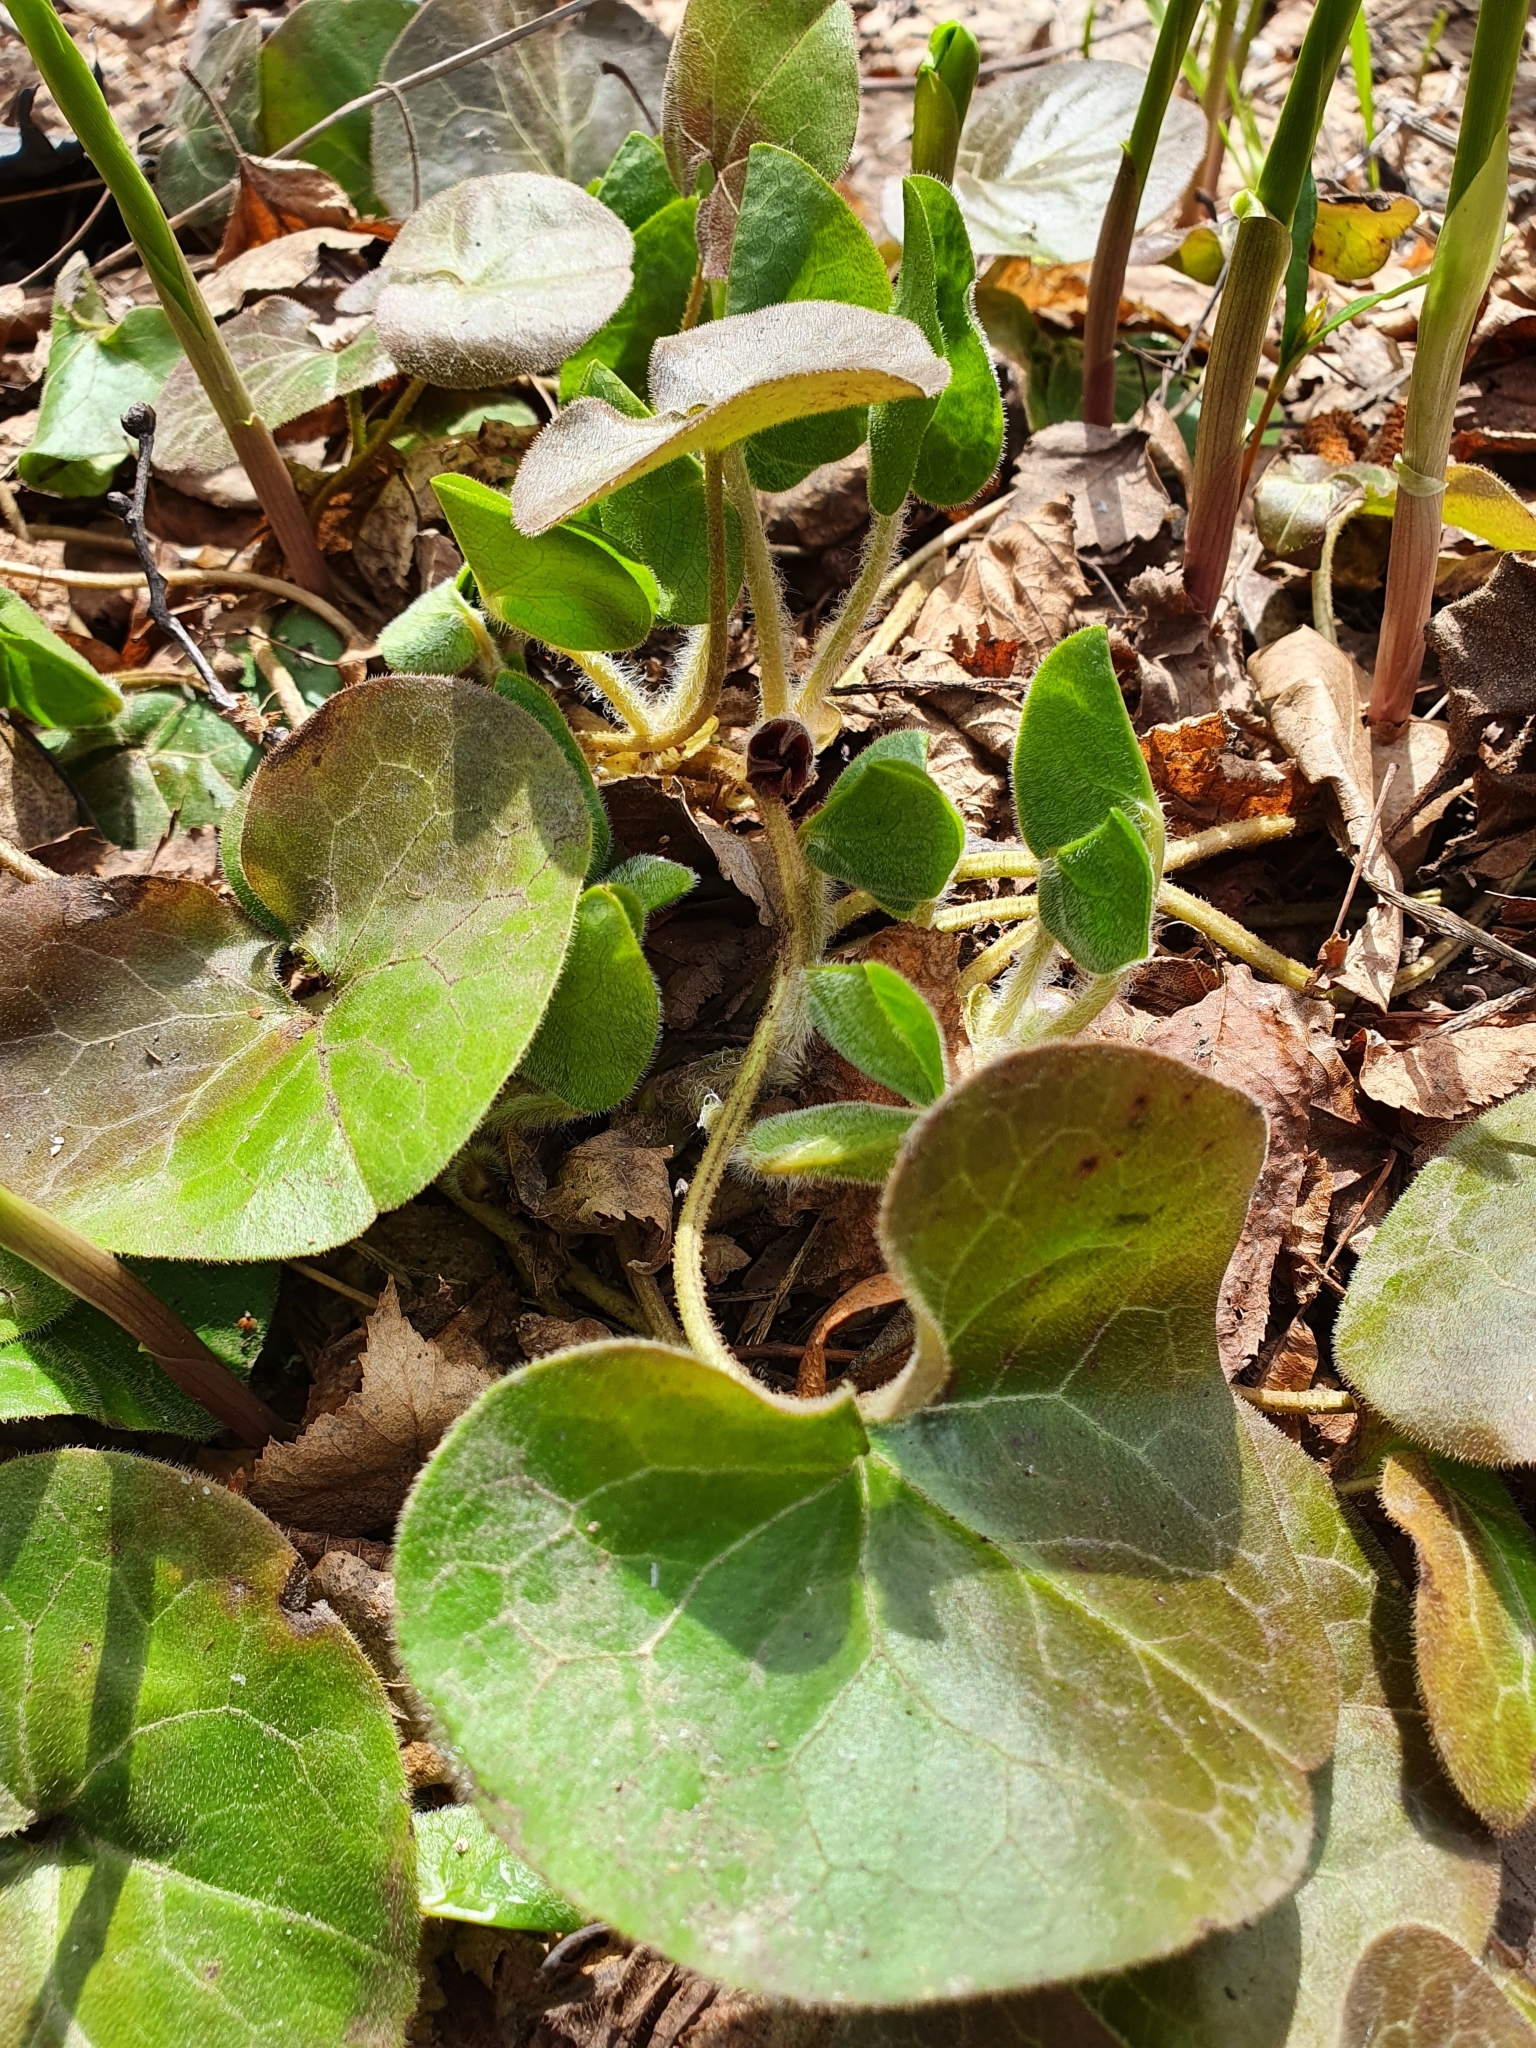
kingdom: Plantae
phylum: Tracheophyta
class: Magnoliopsida
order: Piperales
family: Aristolochiaceae
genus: Asarum
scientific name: Asarum europaeum
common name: Asarabacca
